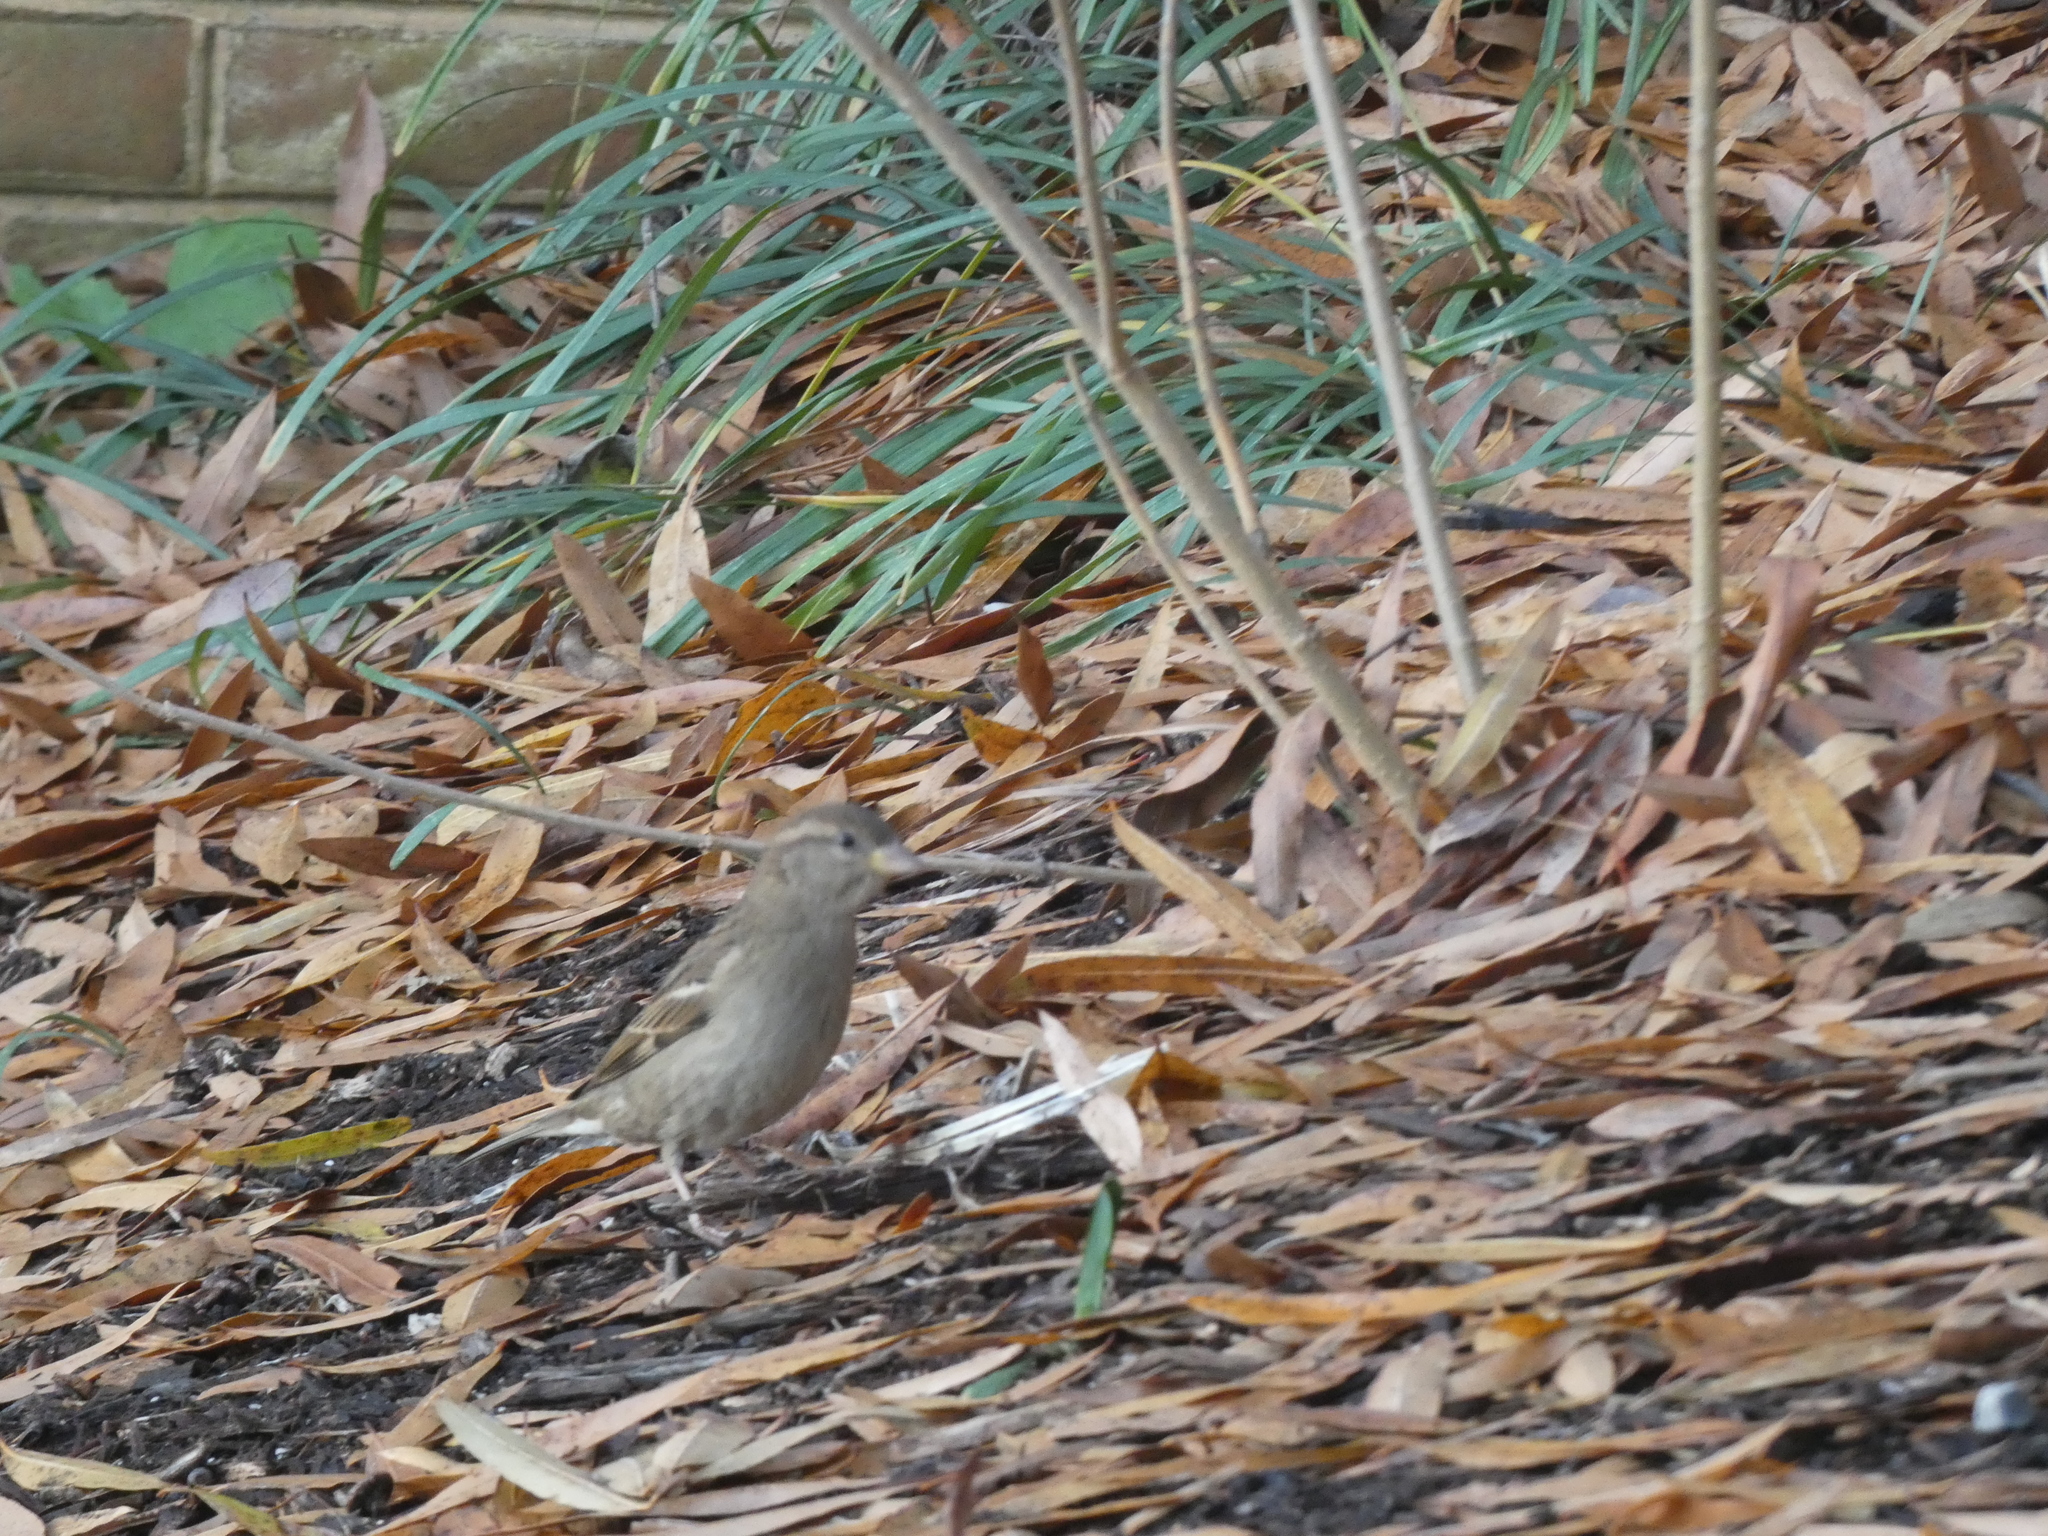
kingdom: Animalia
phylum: Chordata
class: Aves
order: Passeriformes
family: Passeridae
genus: Passer
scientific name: Passer domesticus
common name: House sparrow
